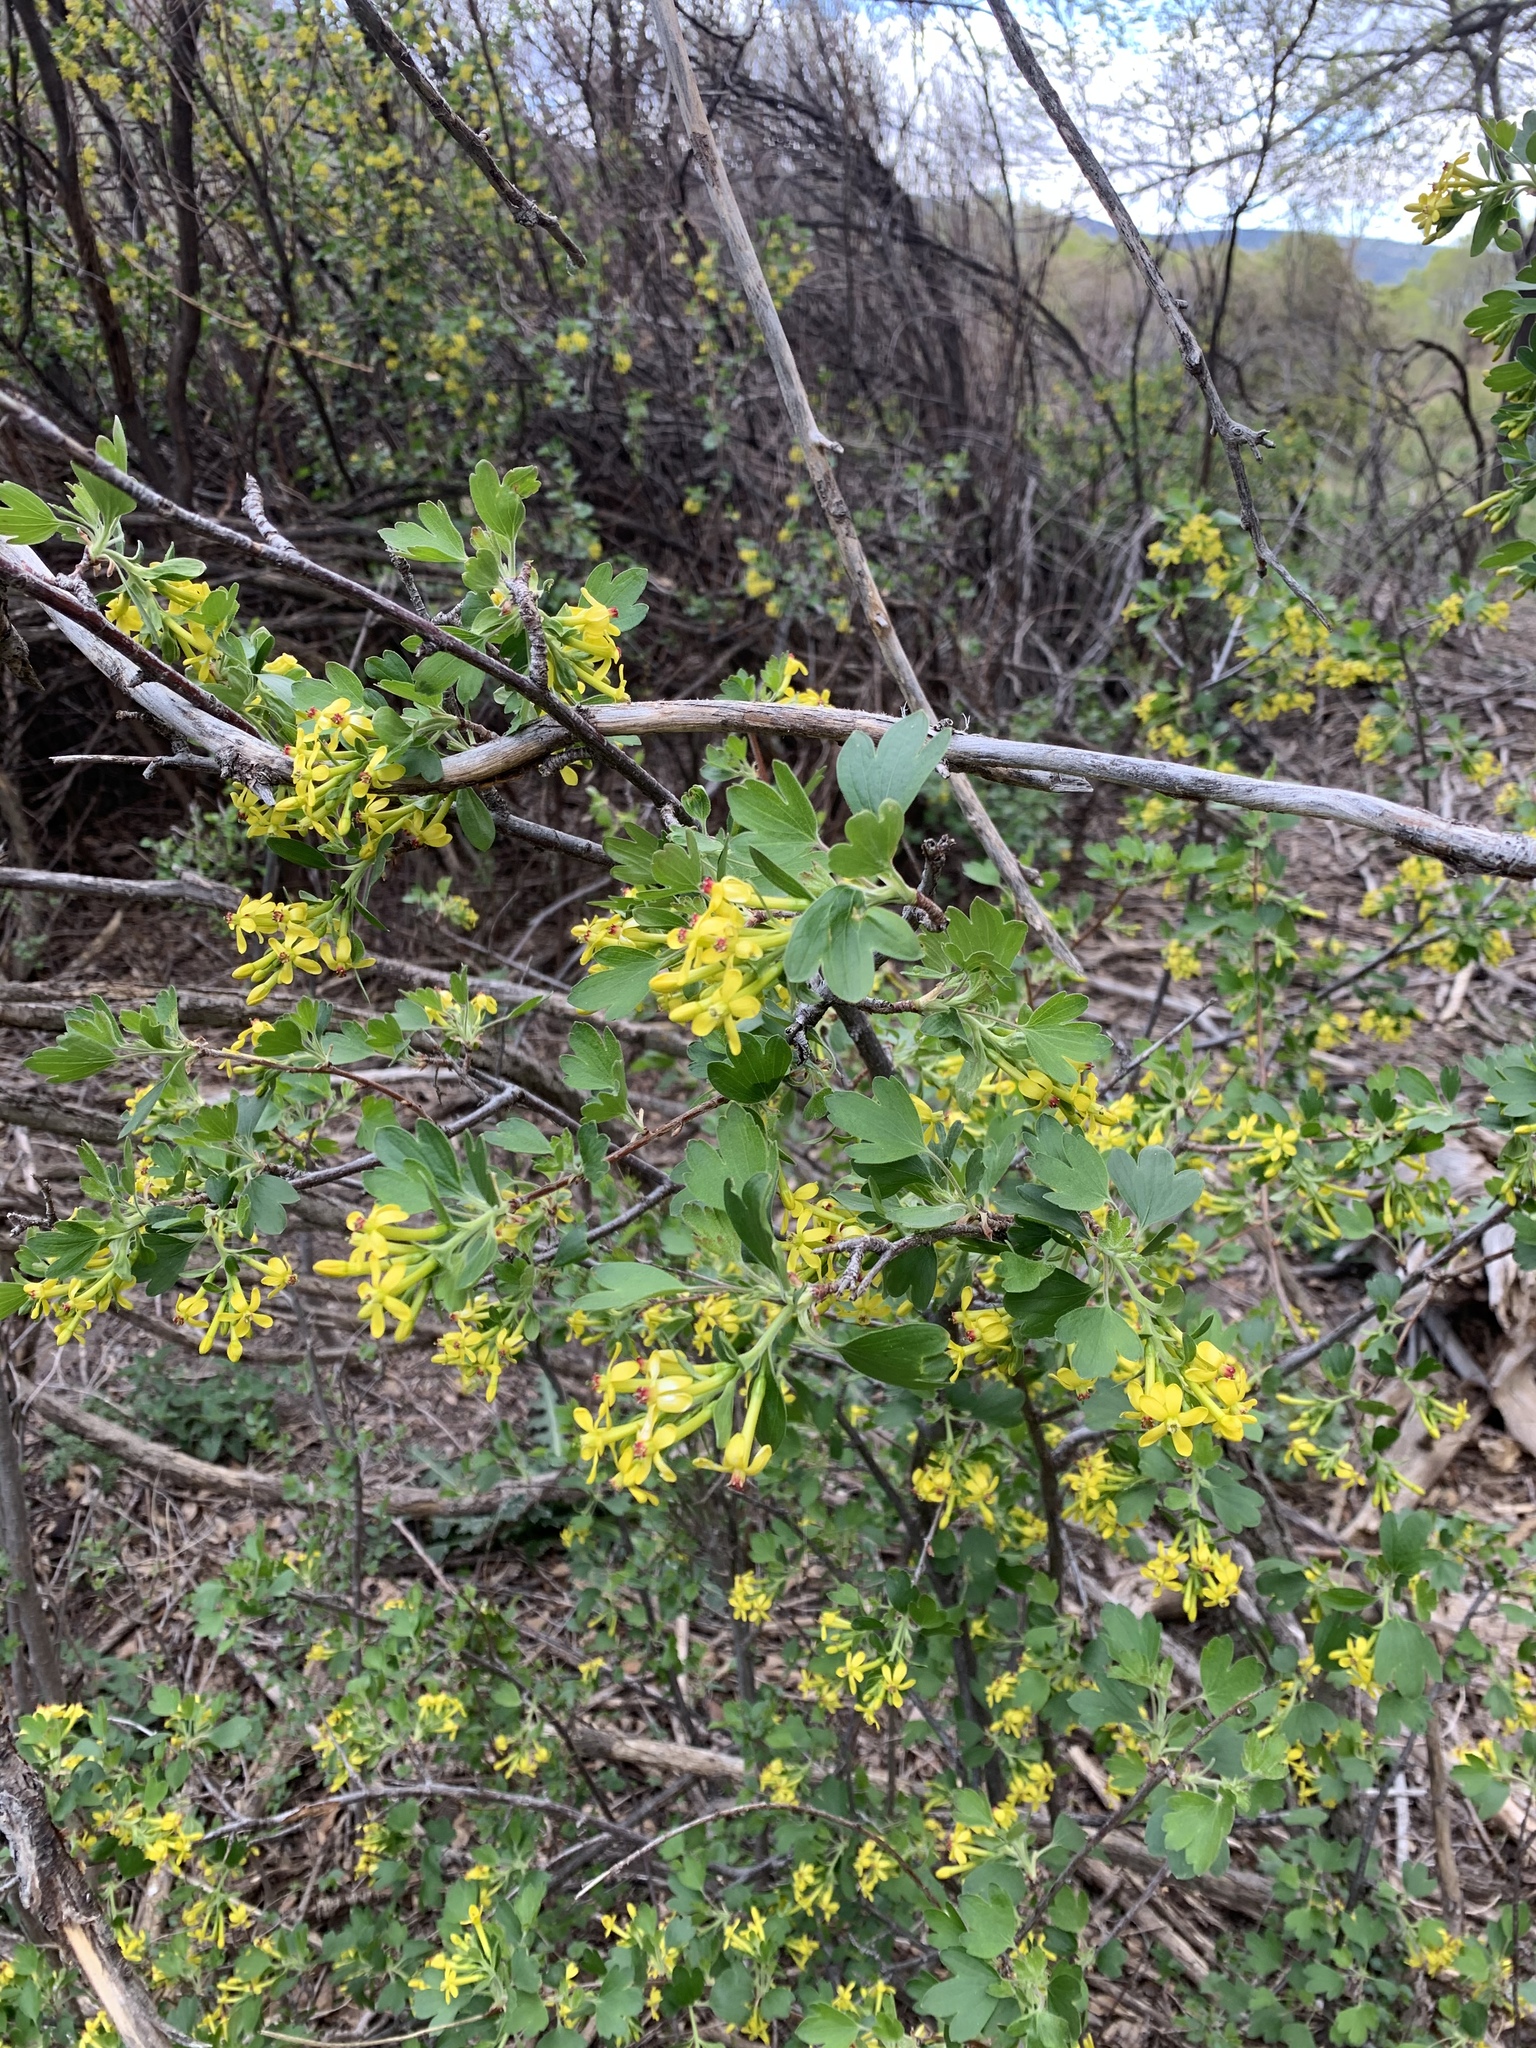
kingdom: Plantae
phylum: Tracheophyta
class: Magnoliopsida
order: Saxifragales
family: Grossulariaceae
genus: Ribes
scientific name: Ribes aureum
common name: Golden currant
